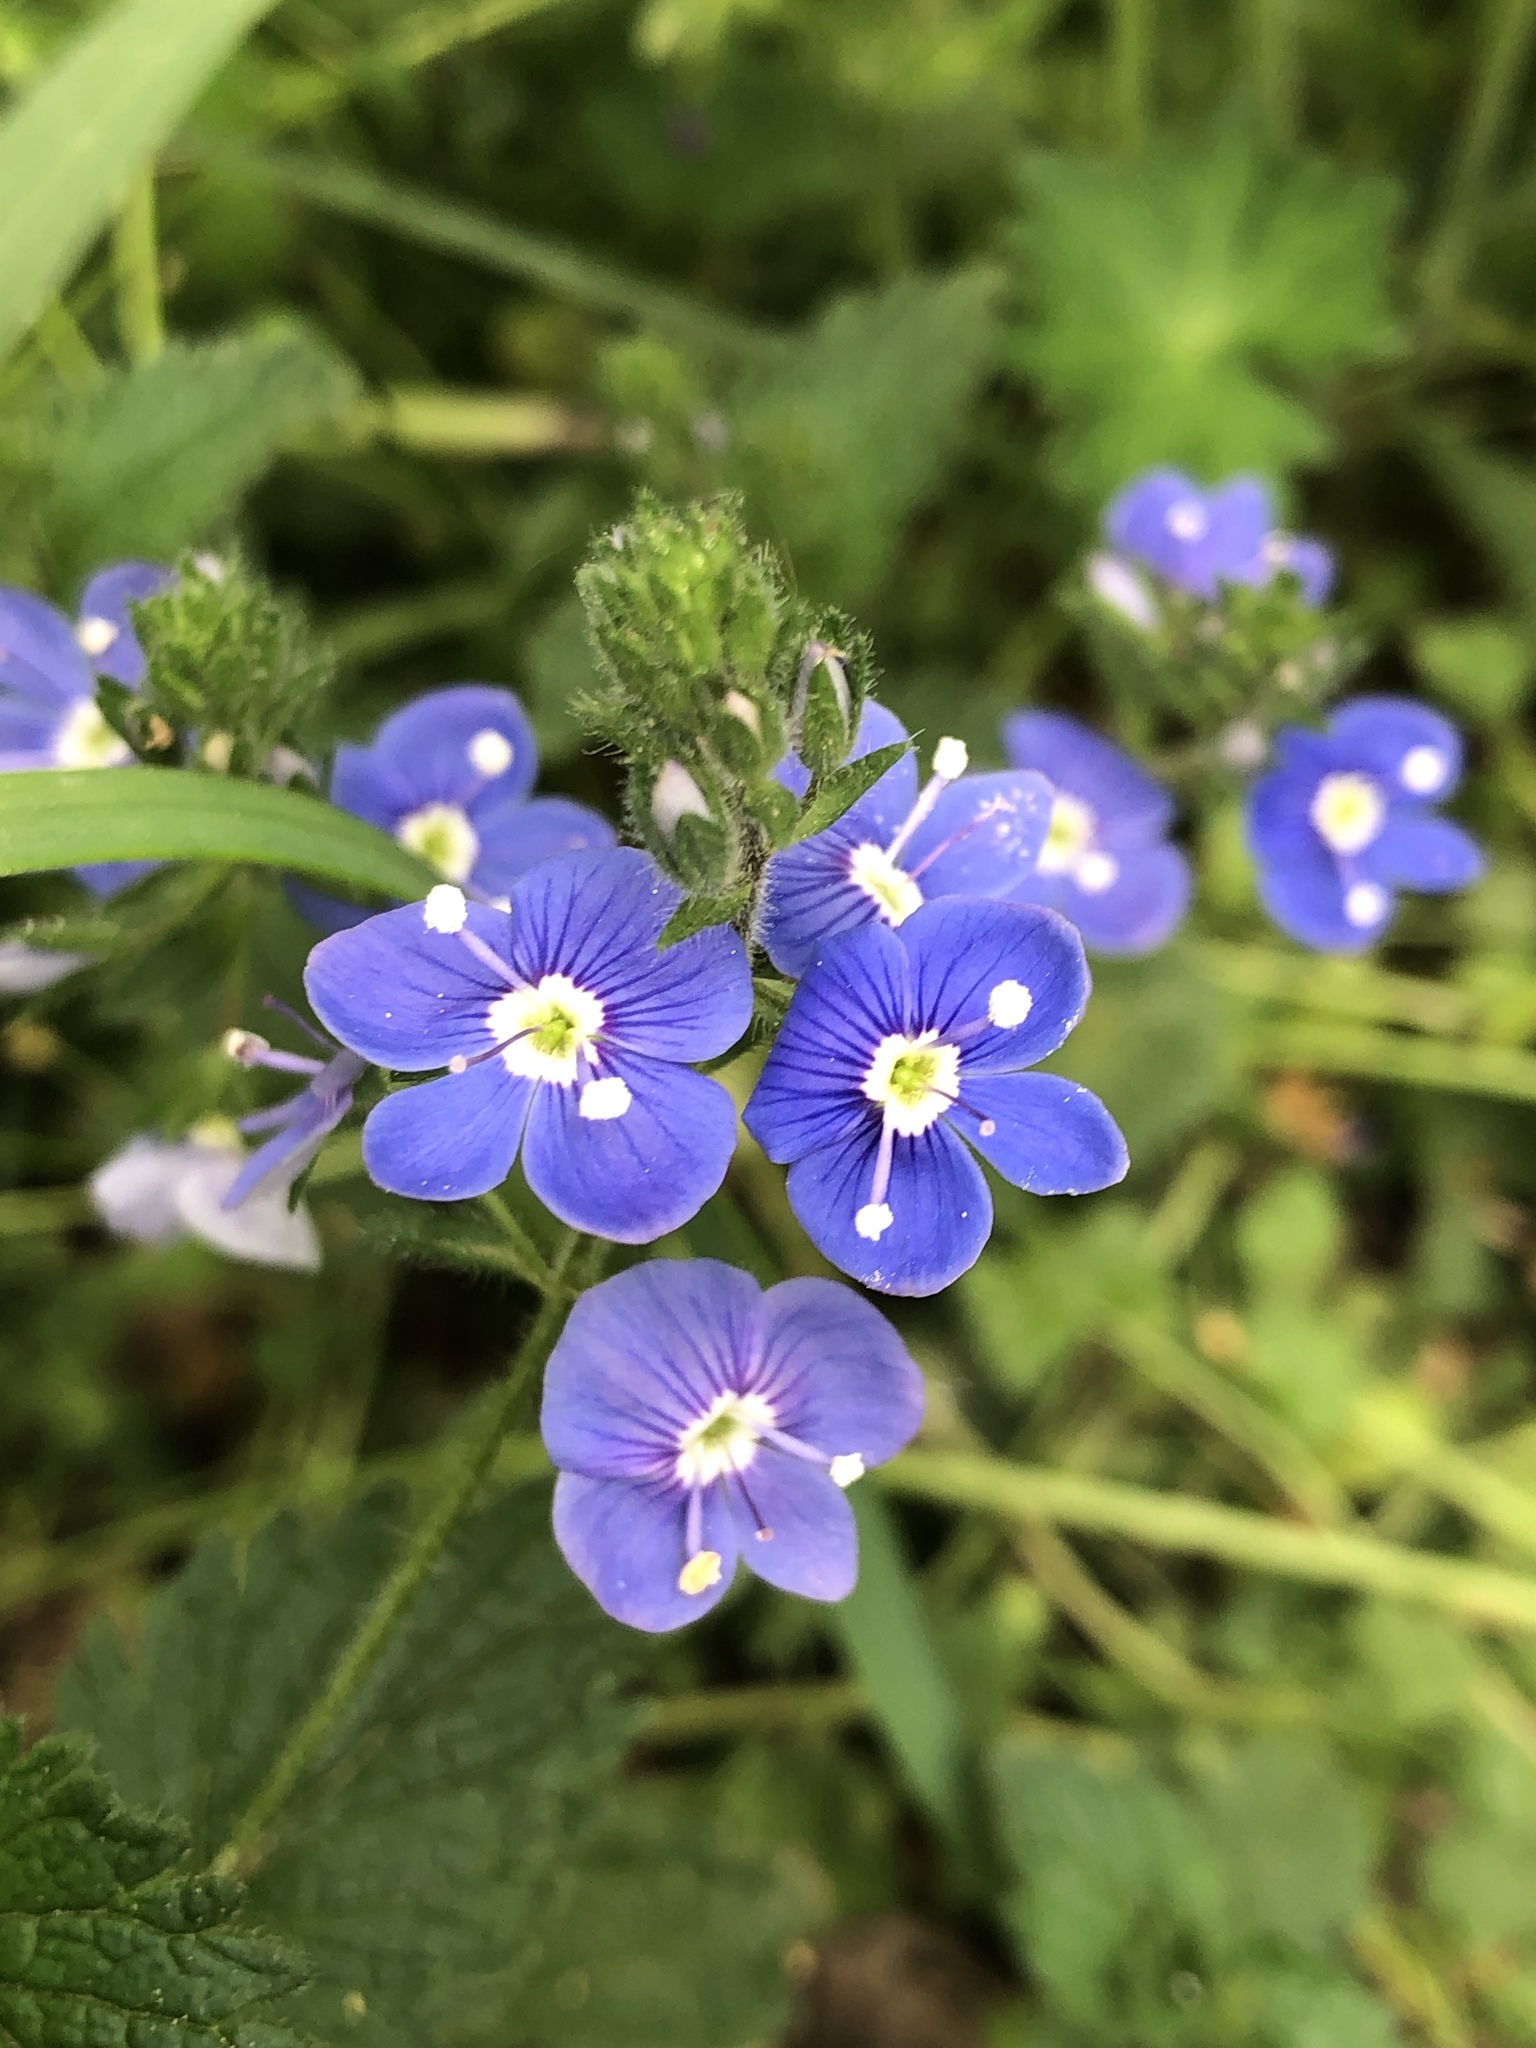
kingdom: Plantae
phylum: Tracheophyta
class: Magnoliopsida
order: Lamiales
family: Plantaginaceae
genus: Veronica
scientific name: Veronica chamaedrys
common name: Germander speedwell
